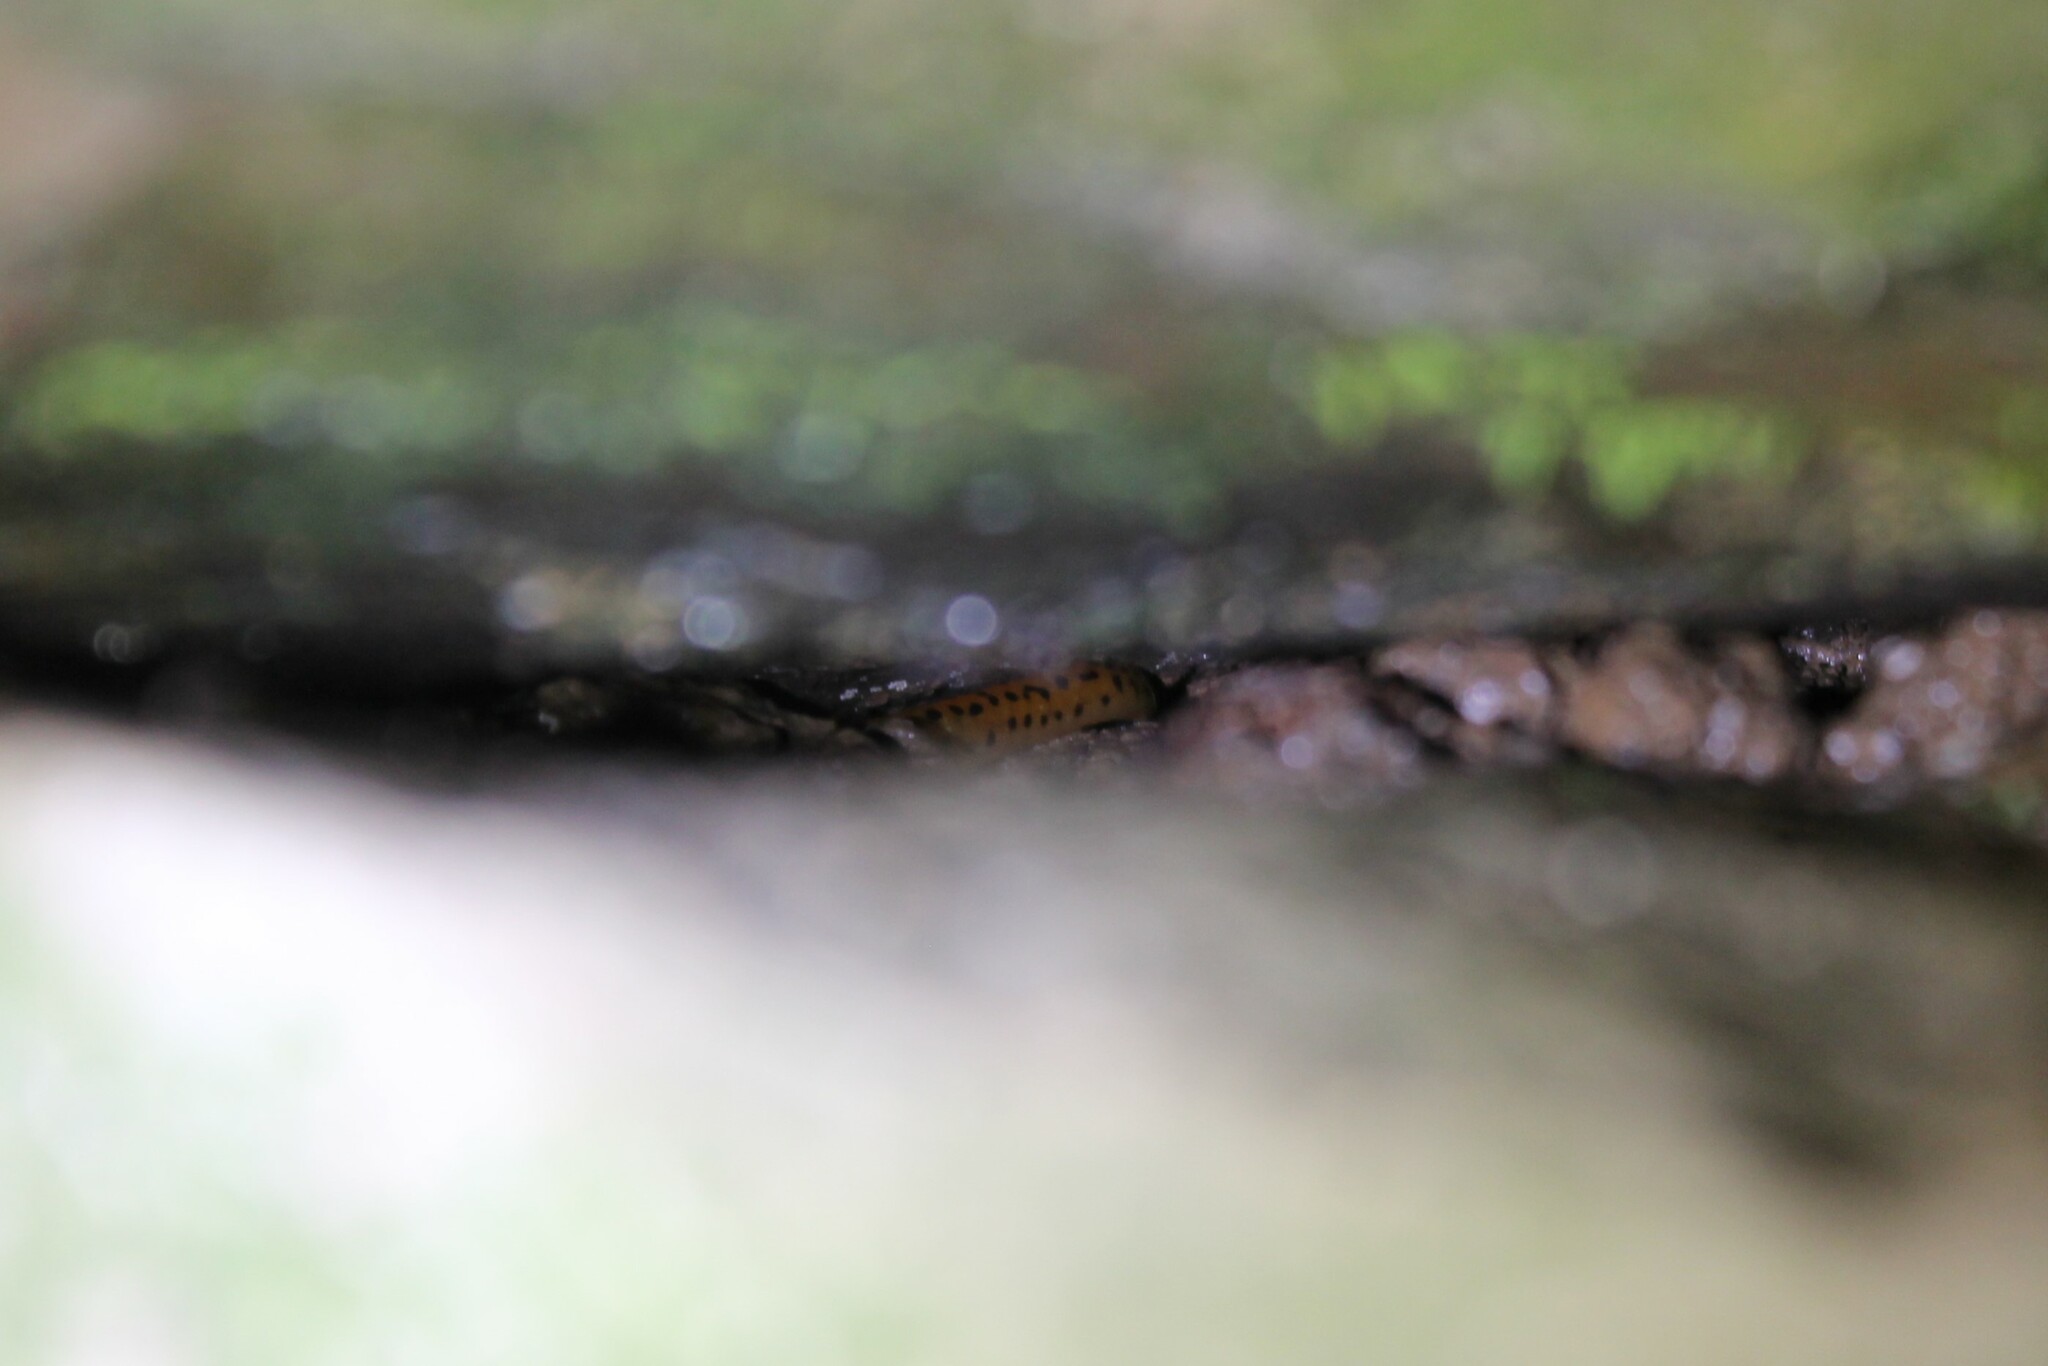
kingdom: Animalia
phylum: Chordata
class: Amphibia
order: Caudata
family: Plethodontidae
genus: Eurycea
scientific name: Eurycea lucifuga
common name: Cave salamander
